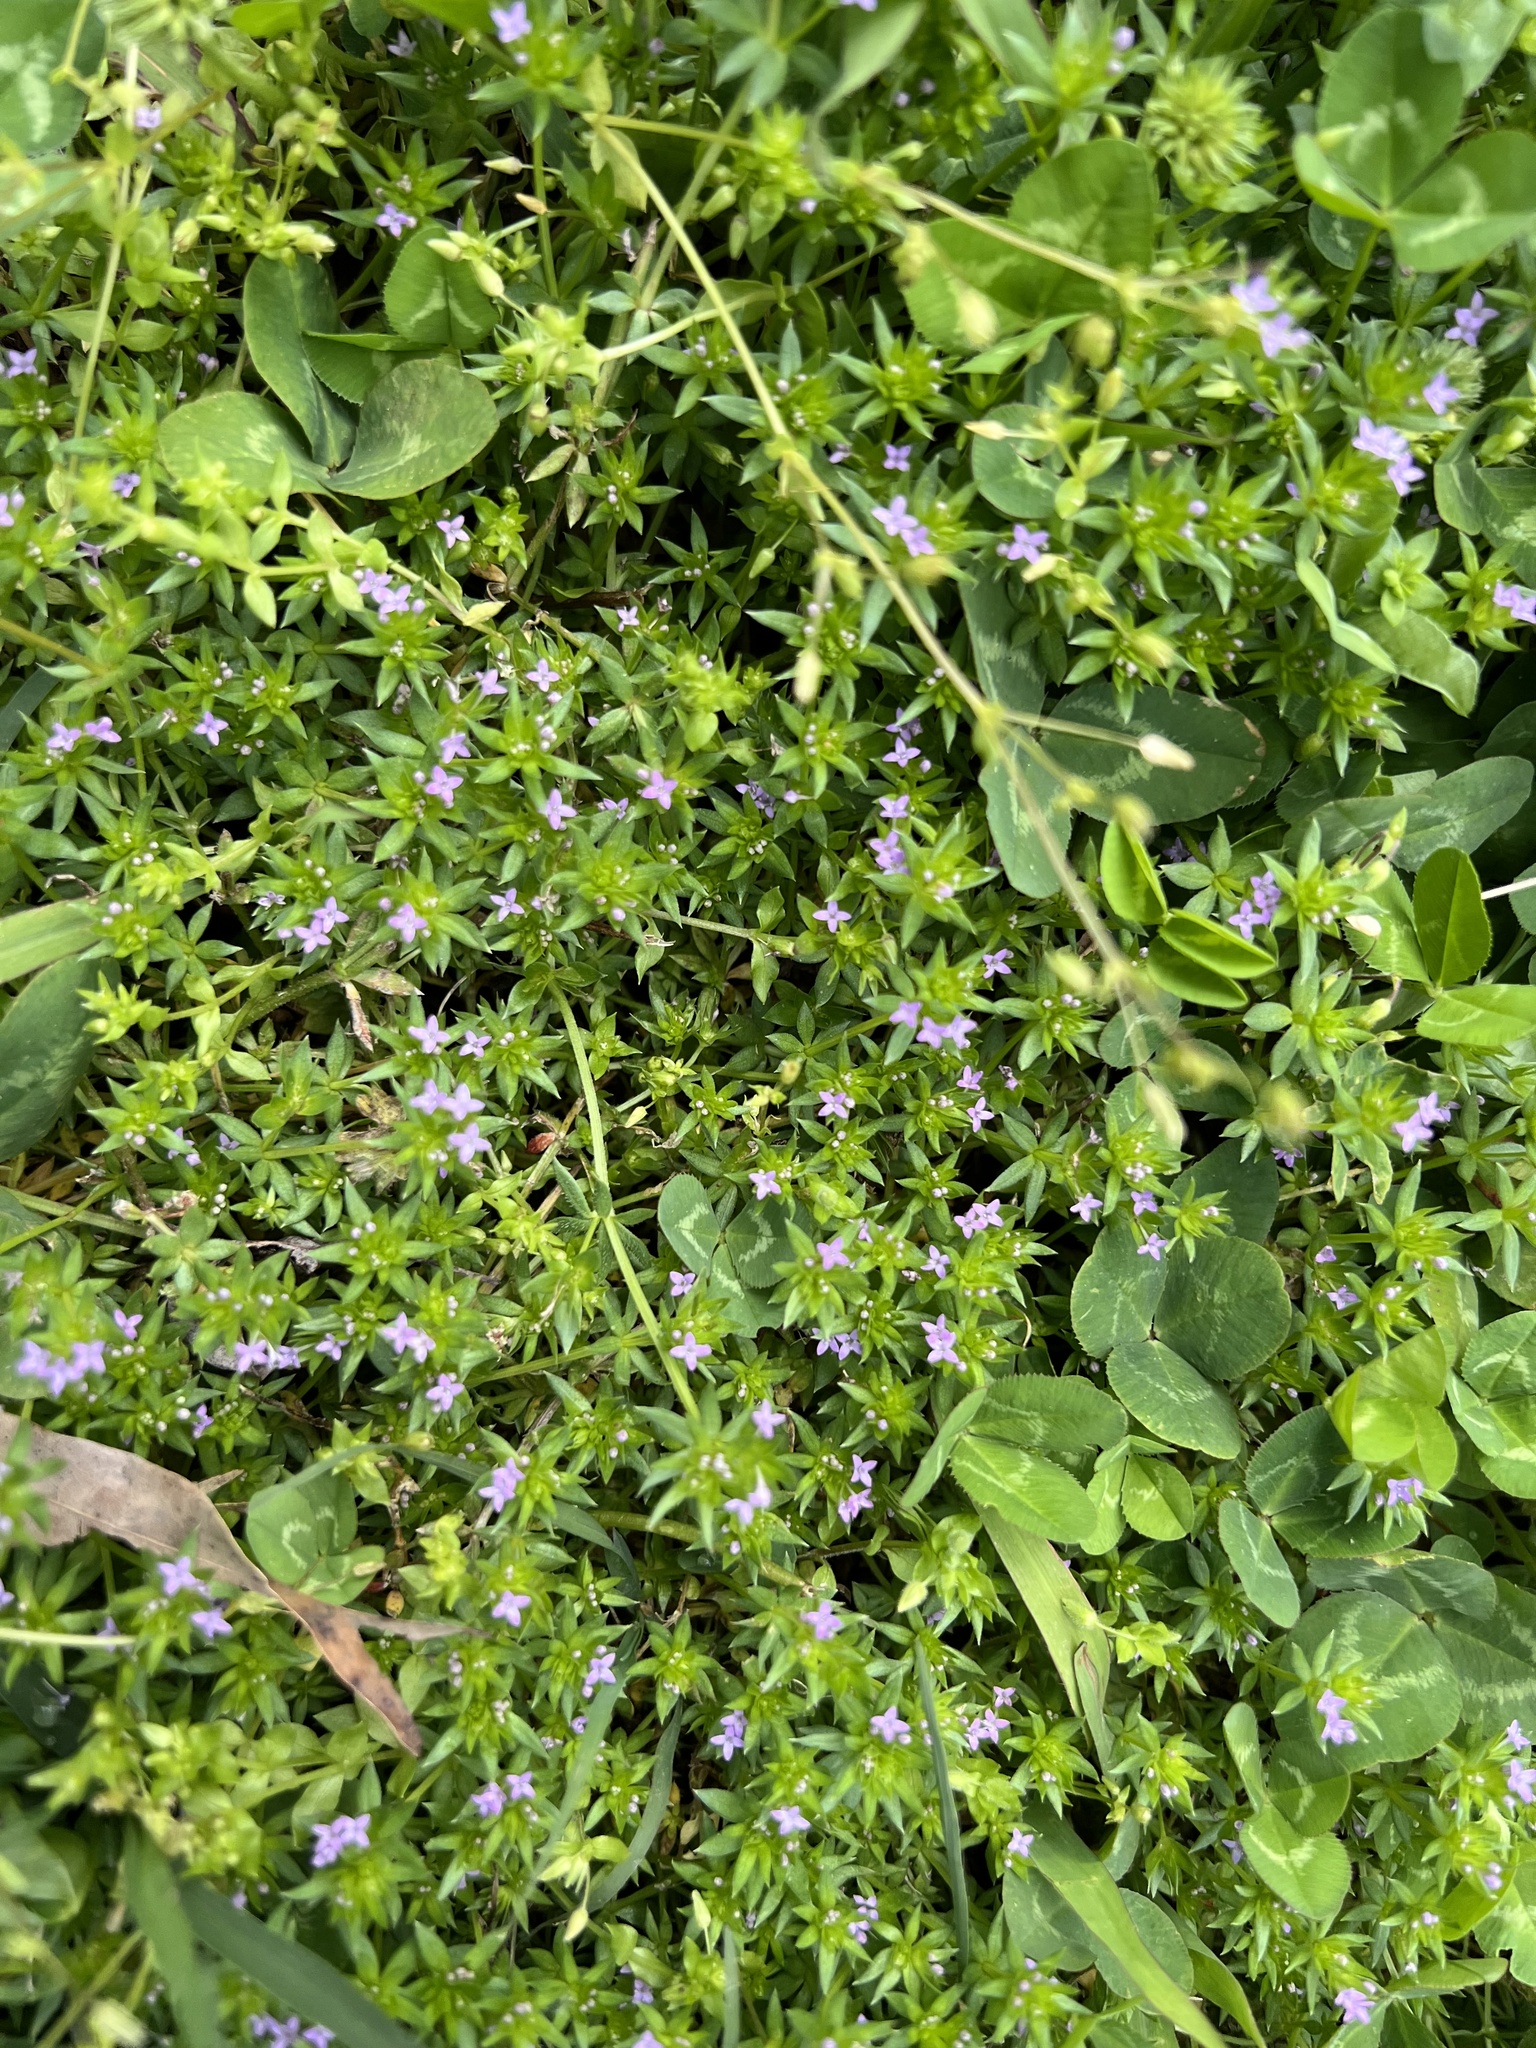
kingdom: Plantae
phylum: Tracheophyta
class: Magnoliopsida
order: Gentianales
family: Rubiaceae
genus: Sherardia
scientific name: Sherardia arvensis
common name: Field madder
